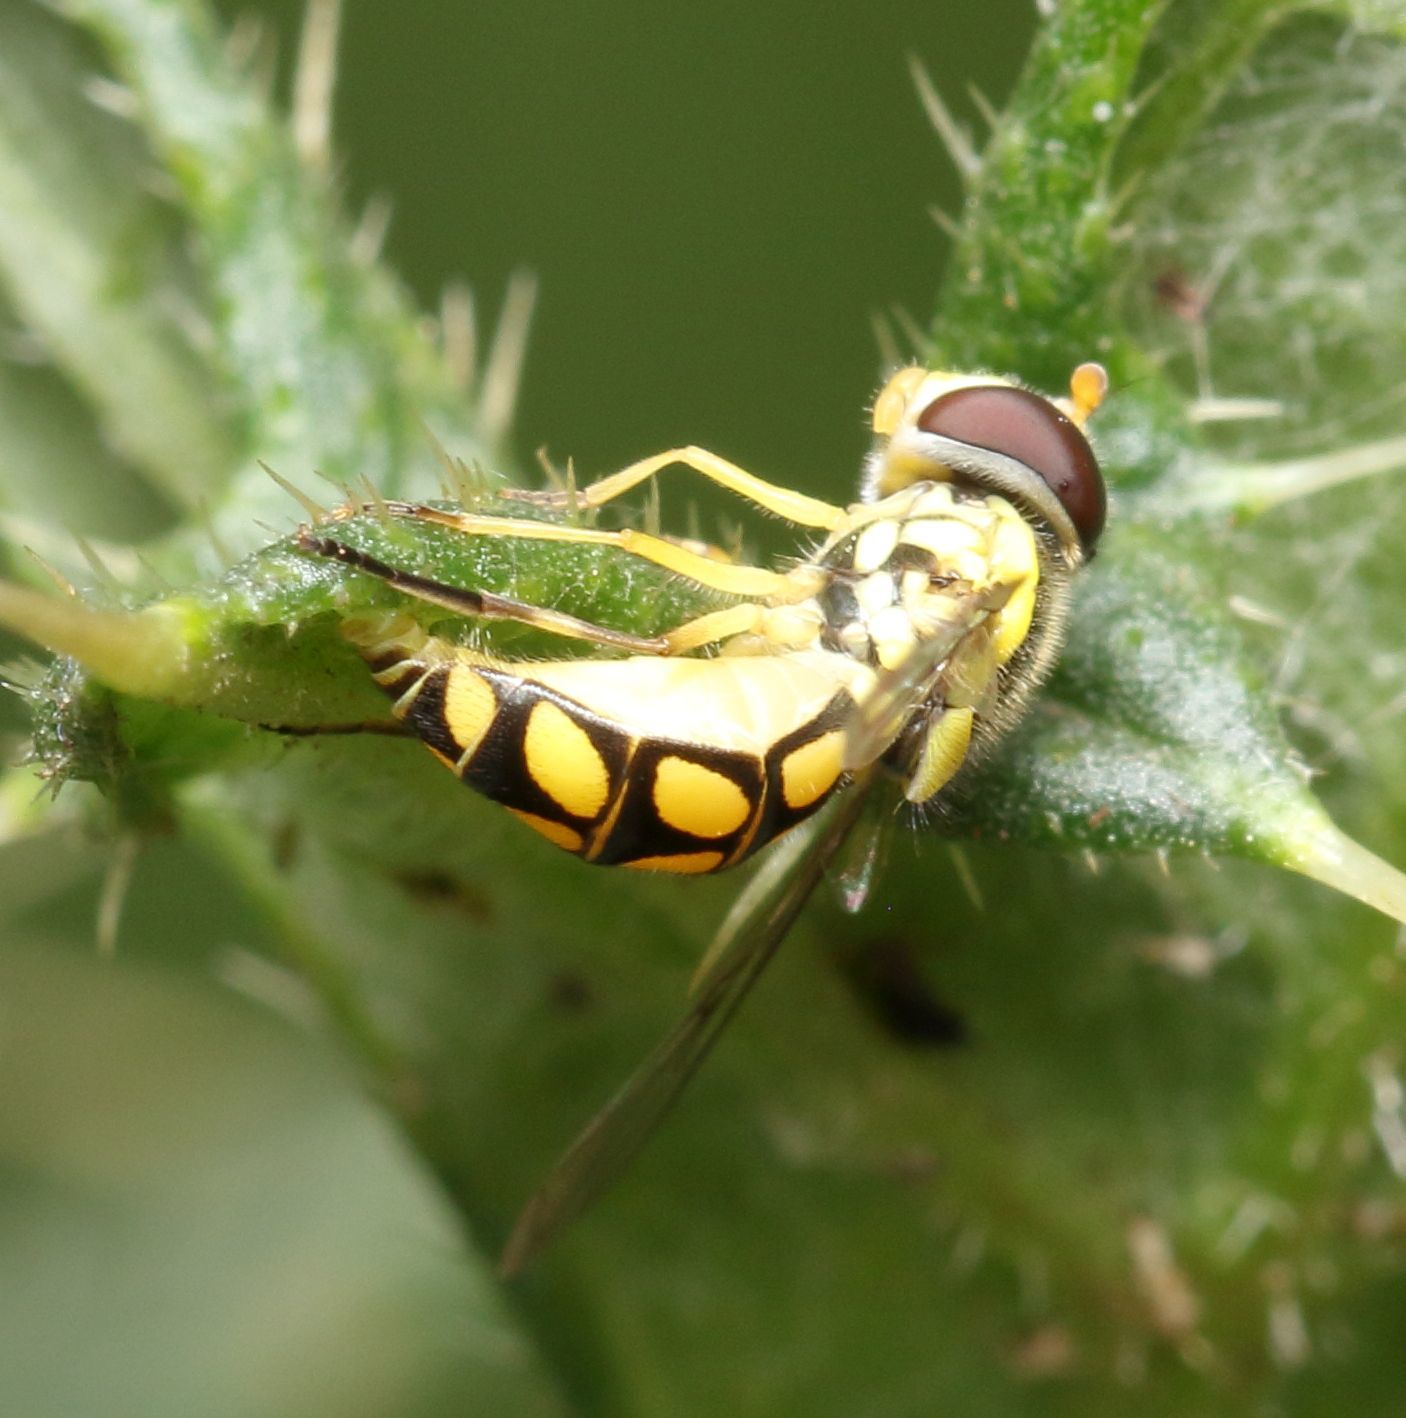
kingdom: Animalia
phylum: Arthropoda
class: Insecta
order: Diptera
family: Syrphidae
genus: Allograpta
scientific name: Allograpta calopoides
